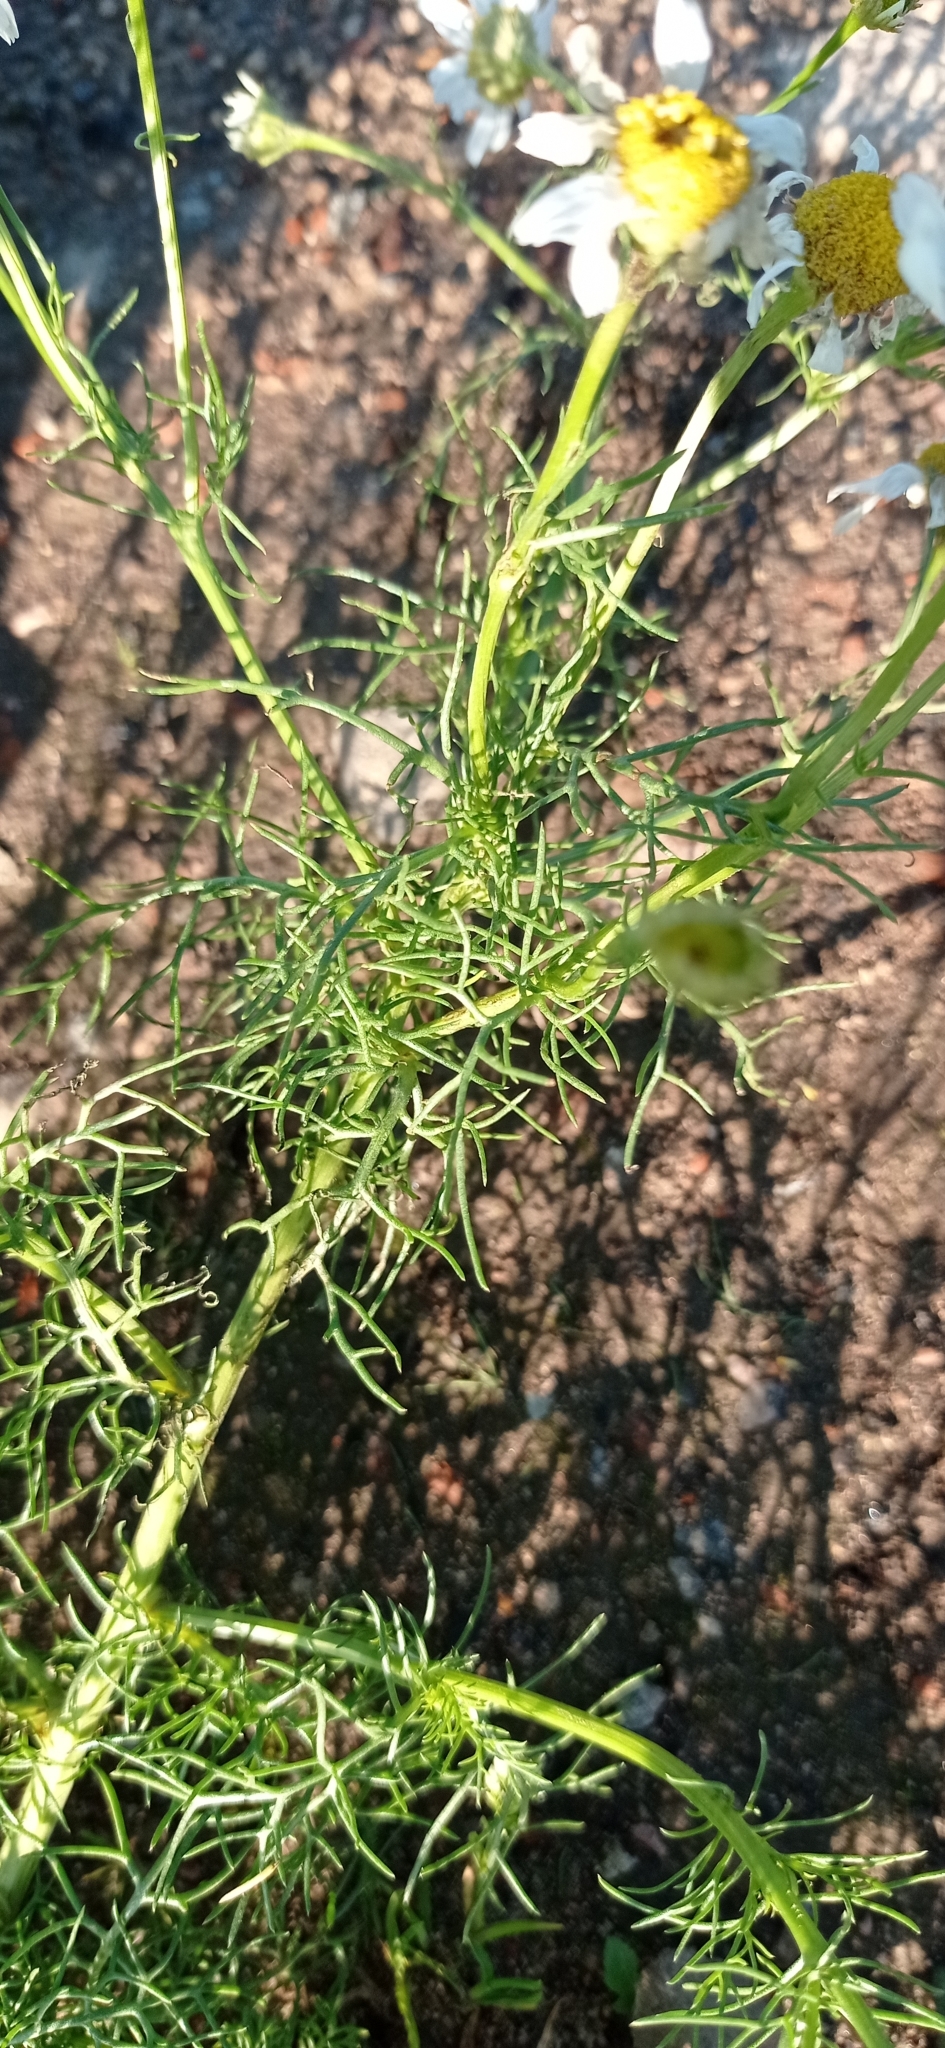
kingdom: Plantae
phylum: Tracheophyta
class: Magnoliopsida
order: Asterales
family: Asteraceae
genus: Tripleurospermum
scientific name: Tripleurospermum inodorum
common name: Scentless mayweed
